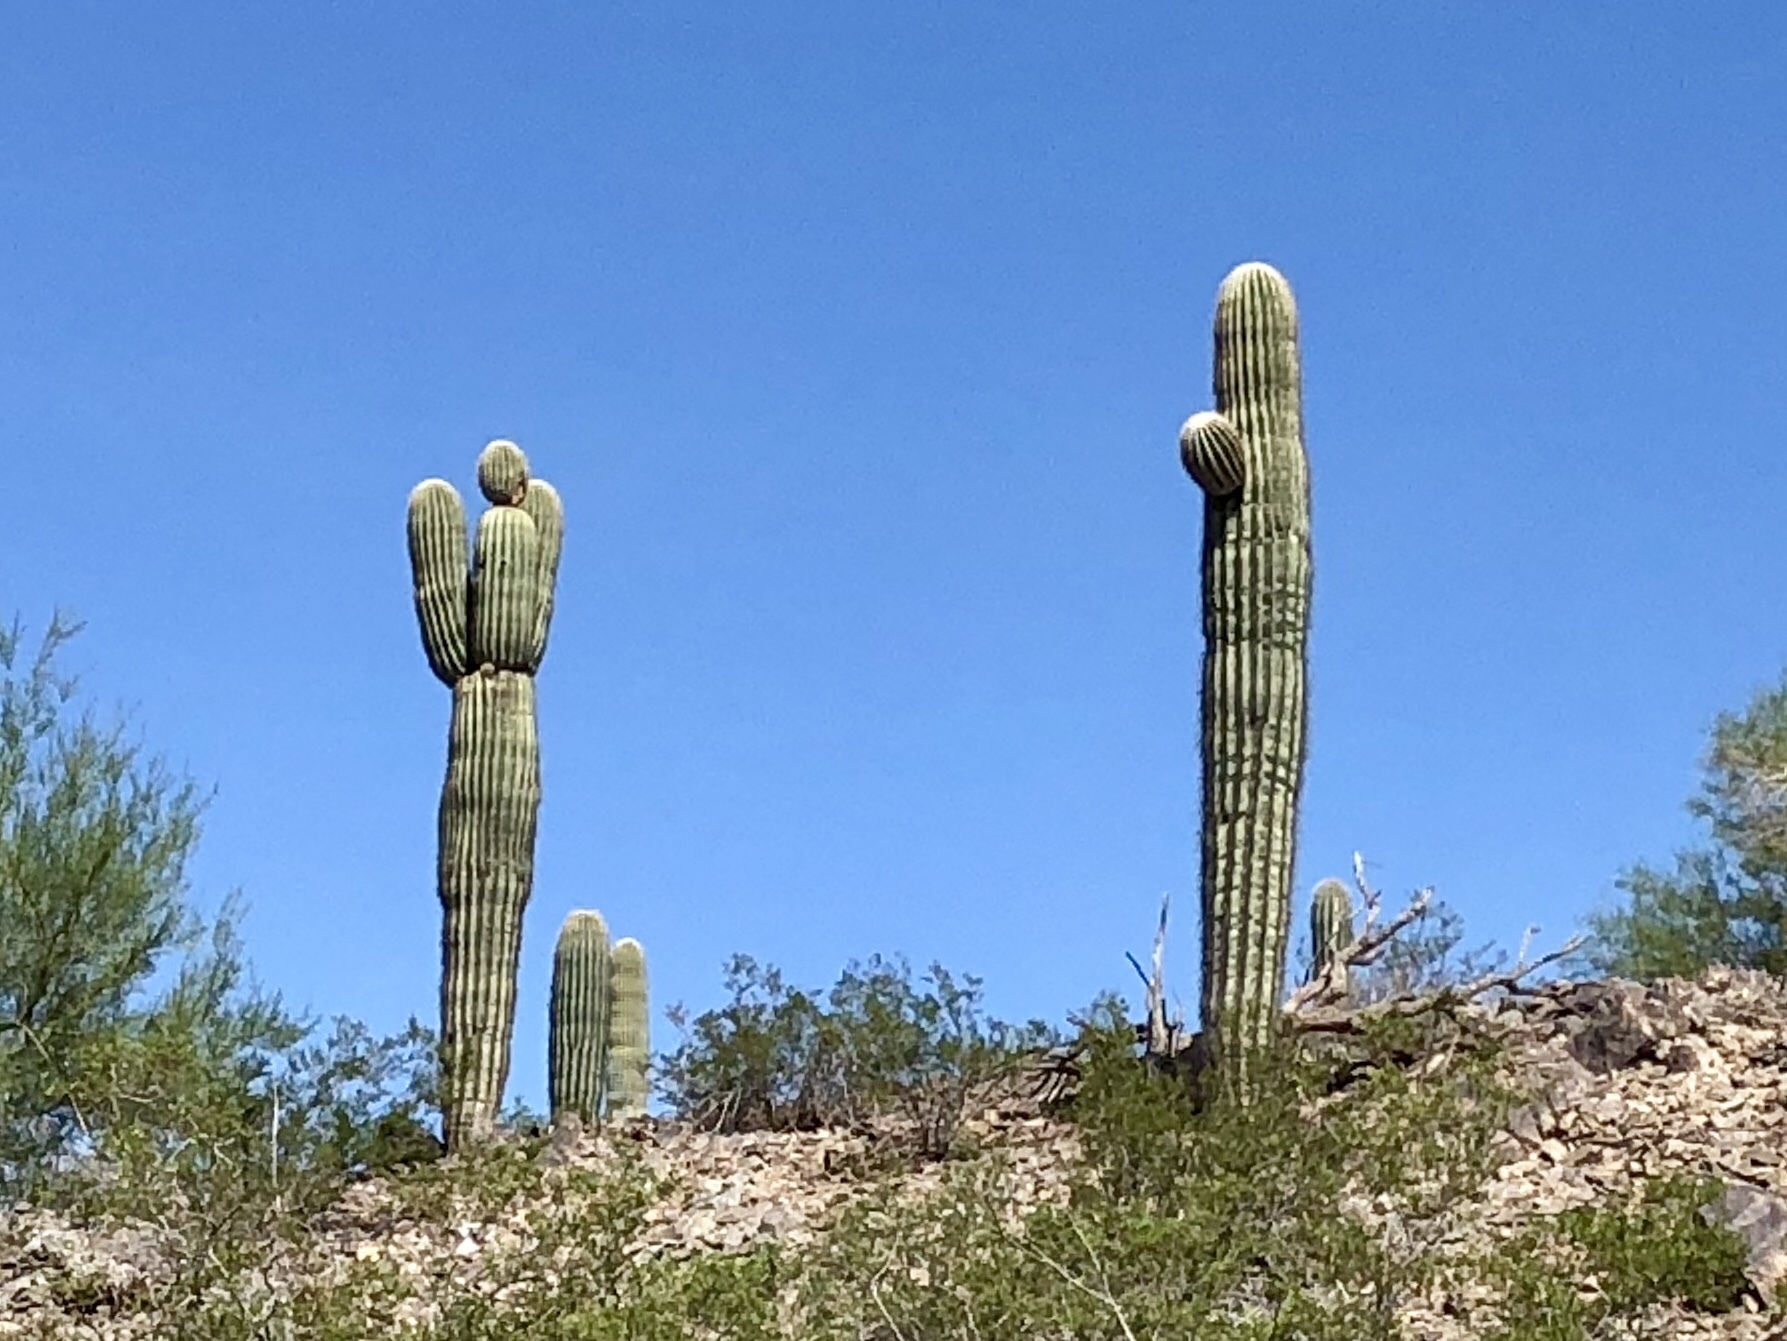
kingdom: Plantae
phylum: Tracheophyta
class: Magnoliopsida
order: Caryophyllales
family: Cactaceae
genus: Carnegiea
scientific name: Carnegiea gigantea
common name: Saguaro
